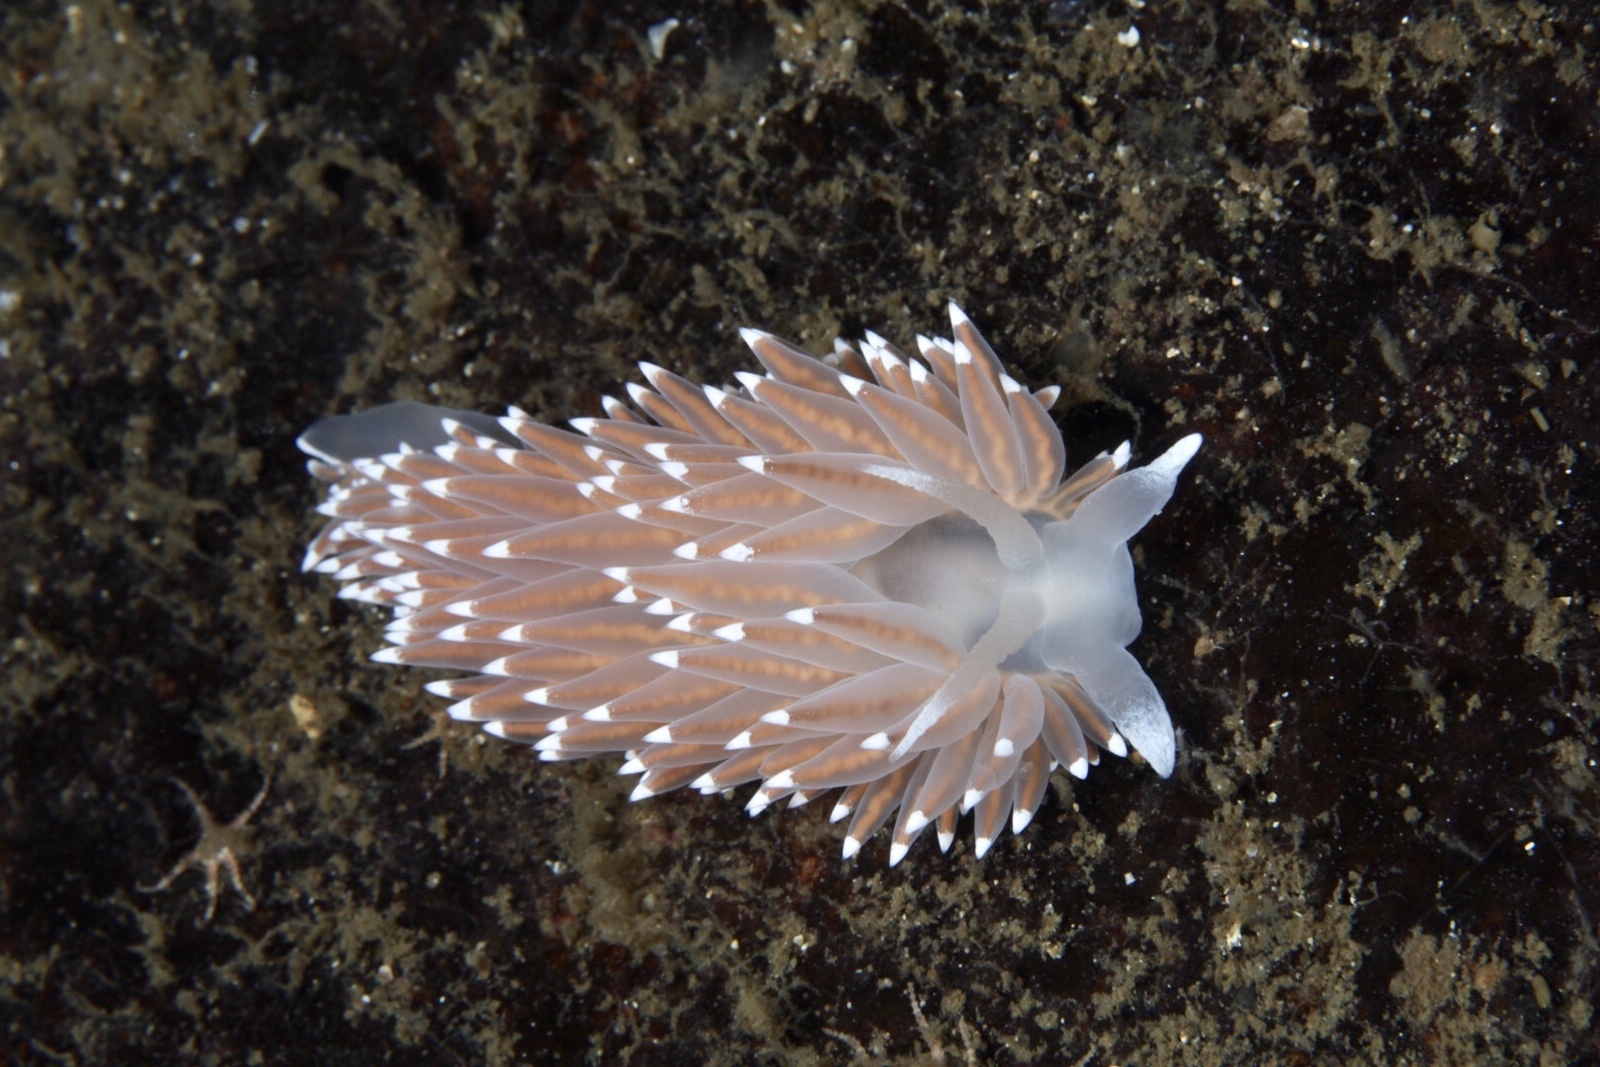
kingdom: Animalia
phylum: Mollusca
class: Gastropoda
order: Nudibranchia
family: Coryphellidae
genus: Coryphella
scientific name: Coryphella nobilis
